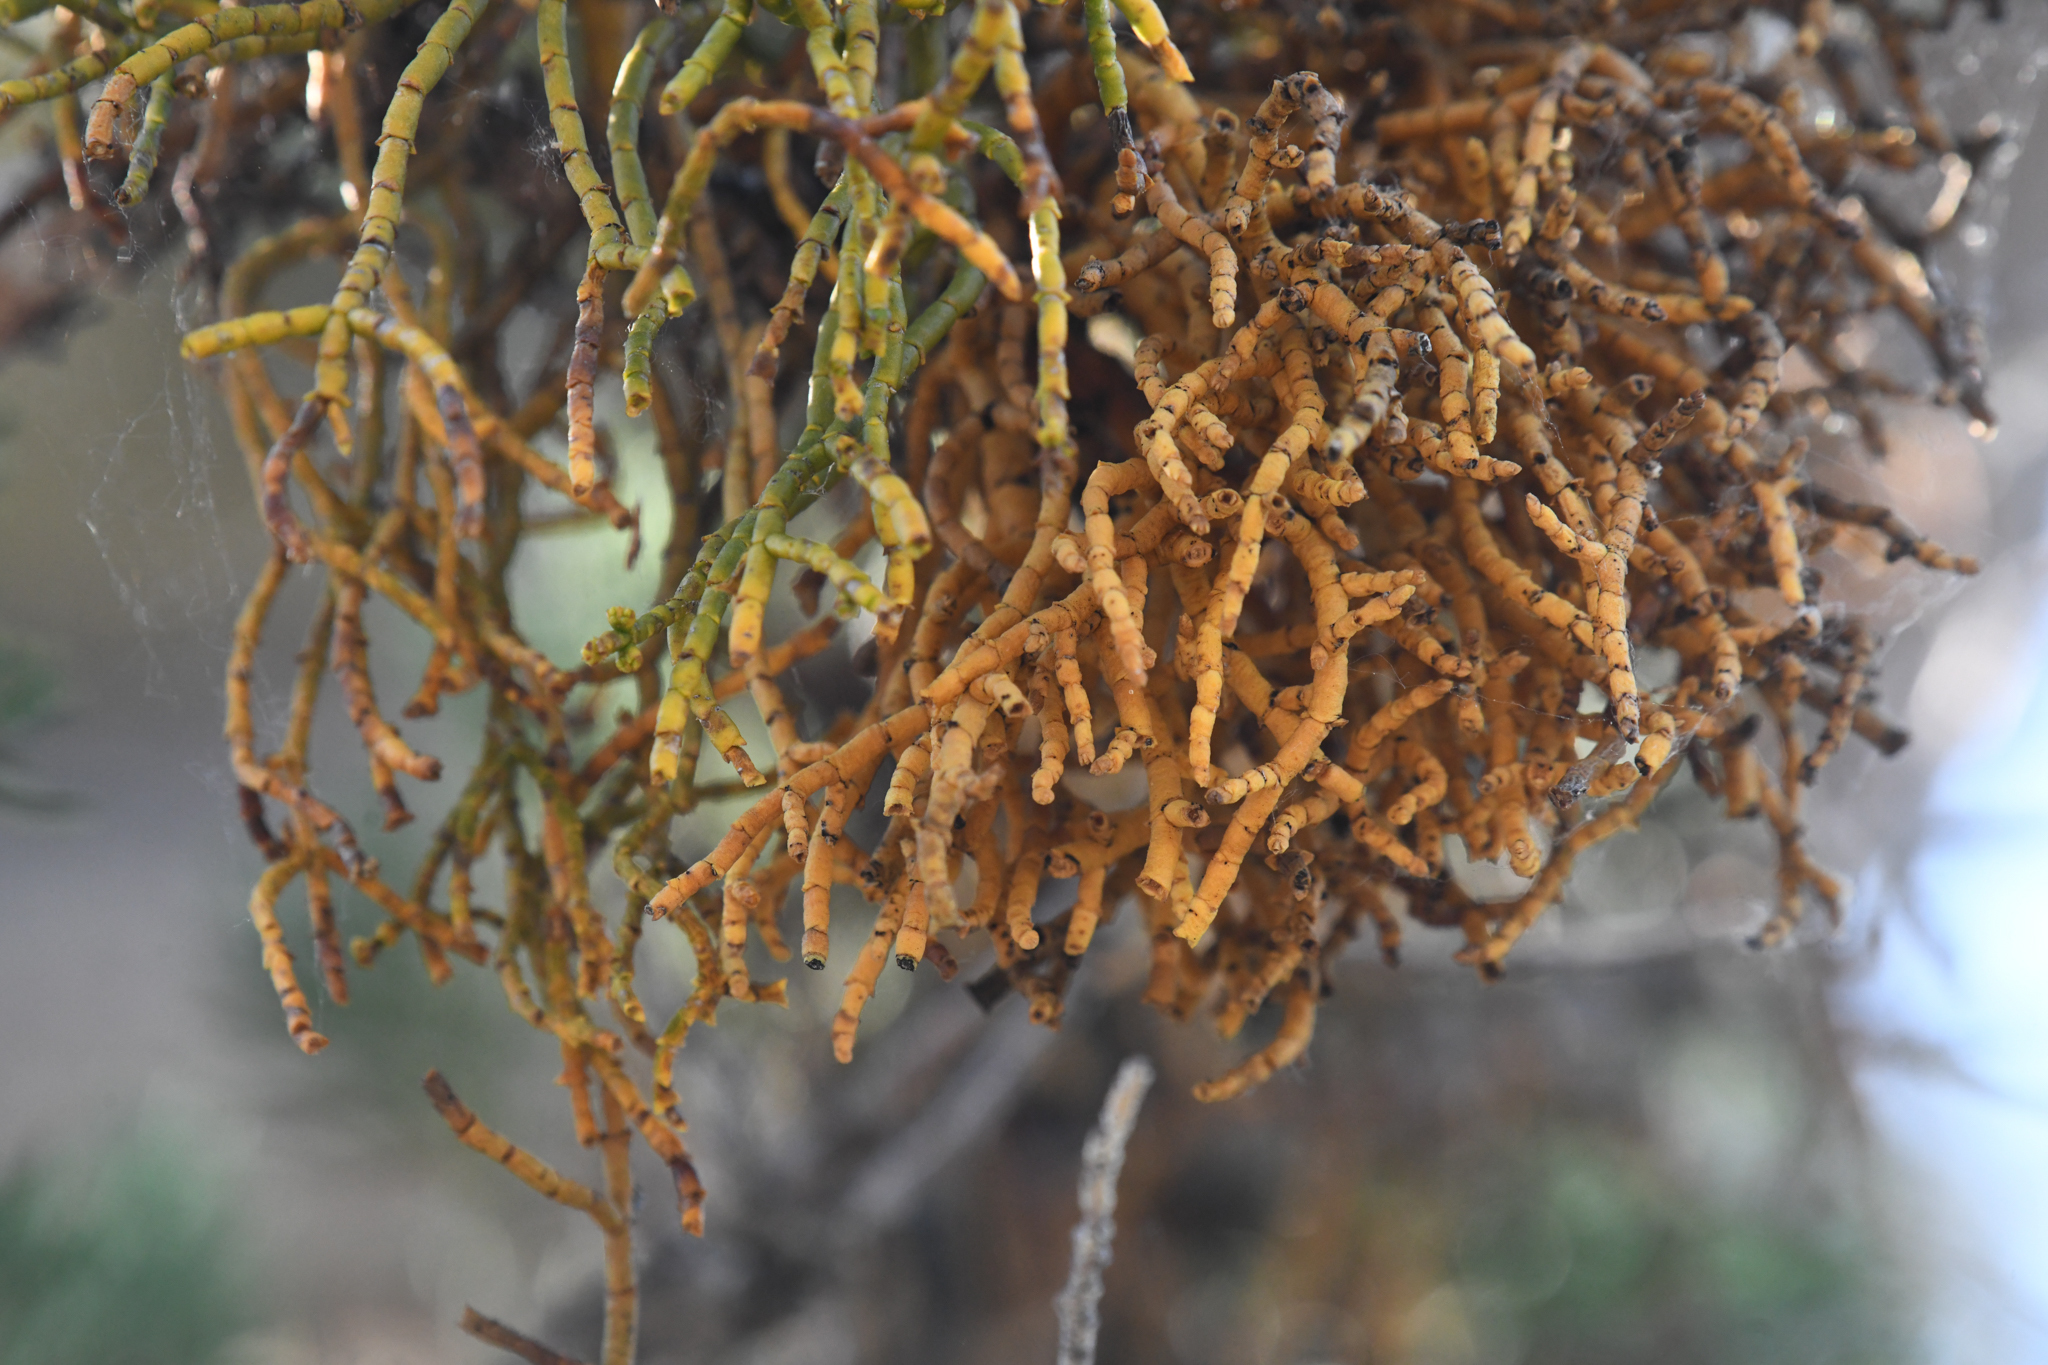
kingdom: Plantae
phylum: Tracheophyta
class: Magnoliopsida
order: Santalales
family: Viscaceae
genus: Phoradendron
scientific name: Phoradendron juniperinum
